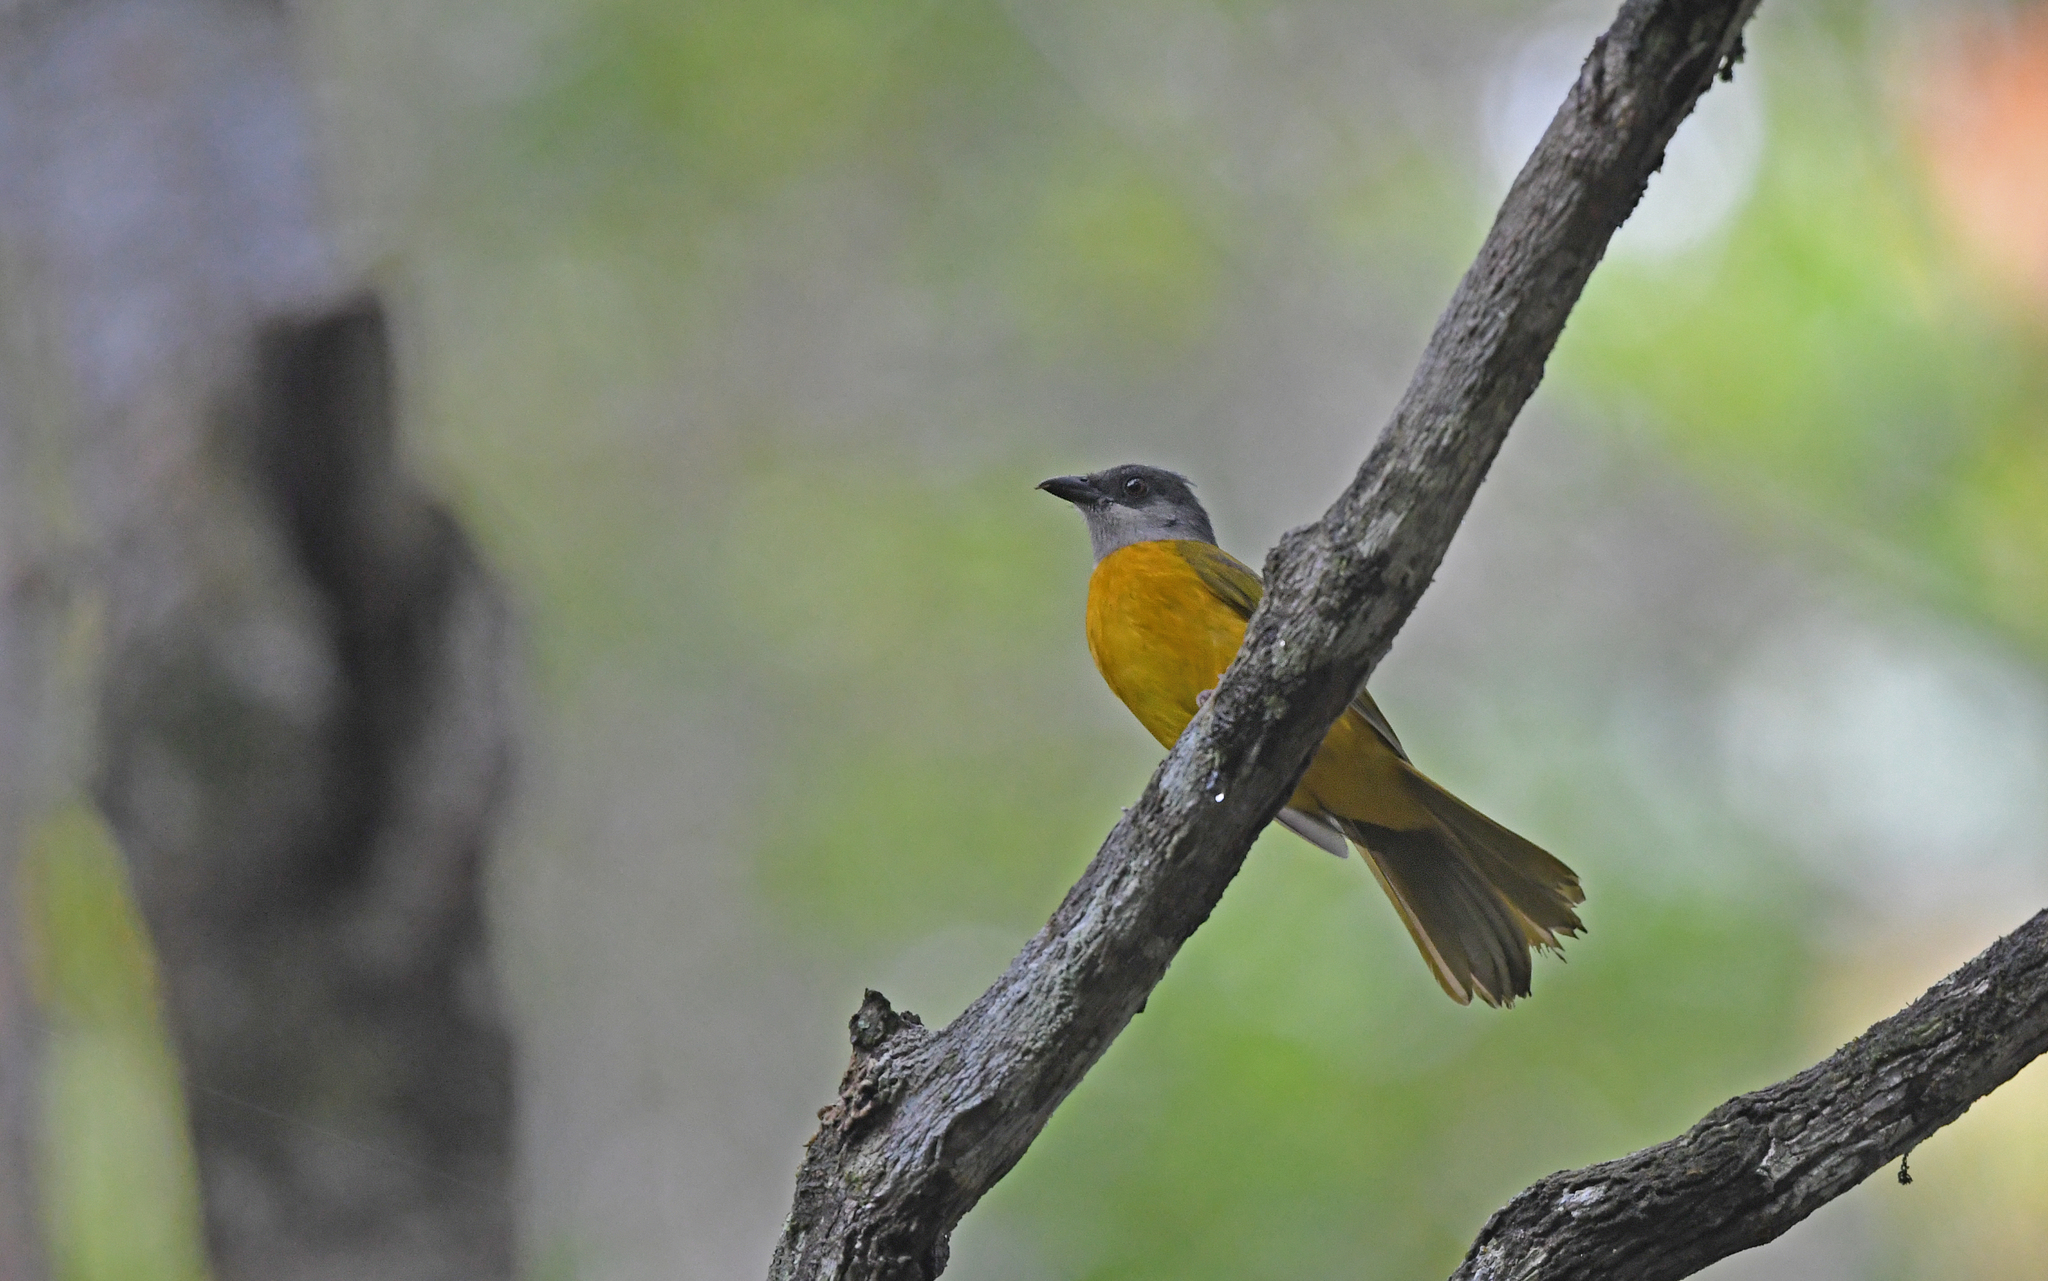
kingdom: Animalia
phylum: Chordata
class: Aves
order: Passeriformes
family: Thraupidae
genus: Eucometis
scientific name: Eucometis penicillata
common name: Grey-headed tanager
